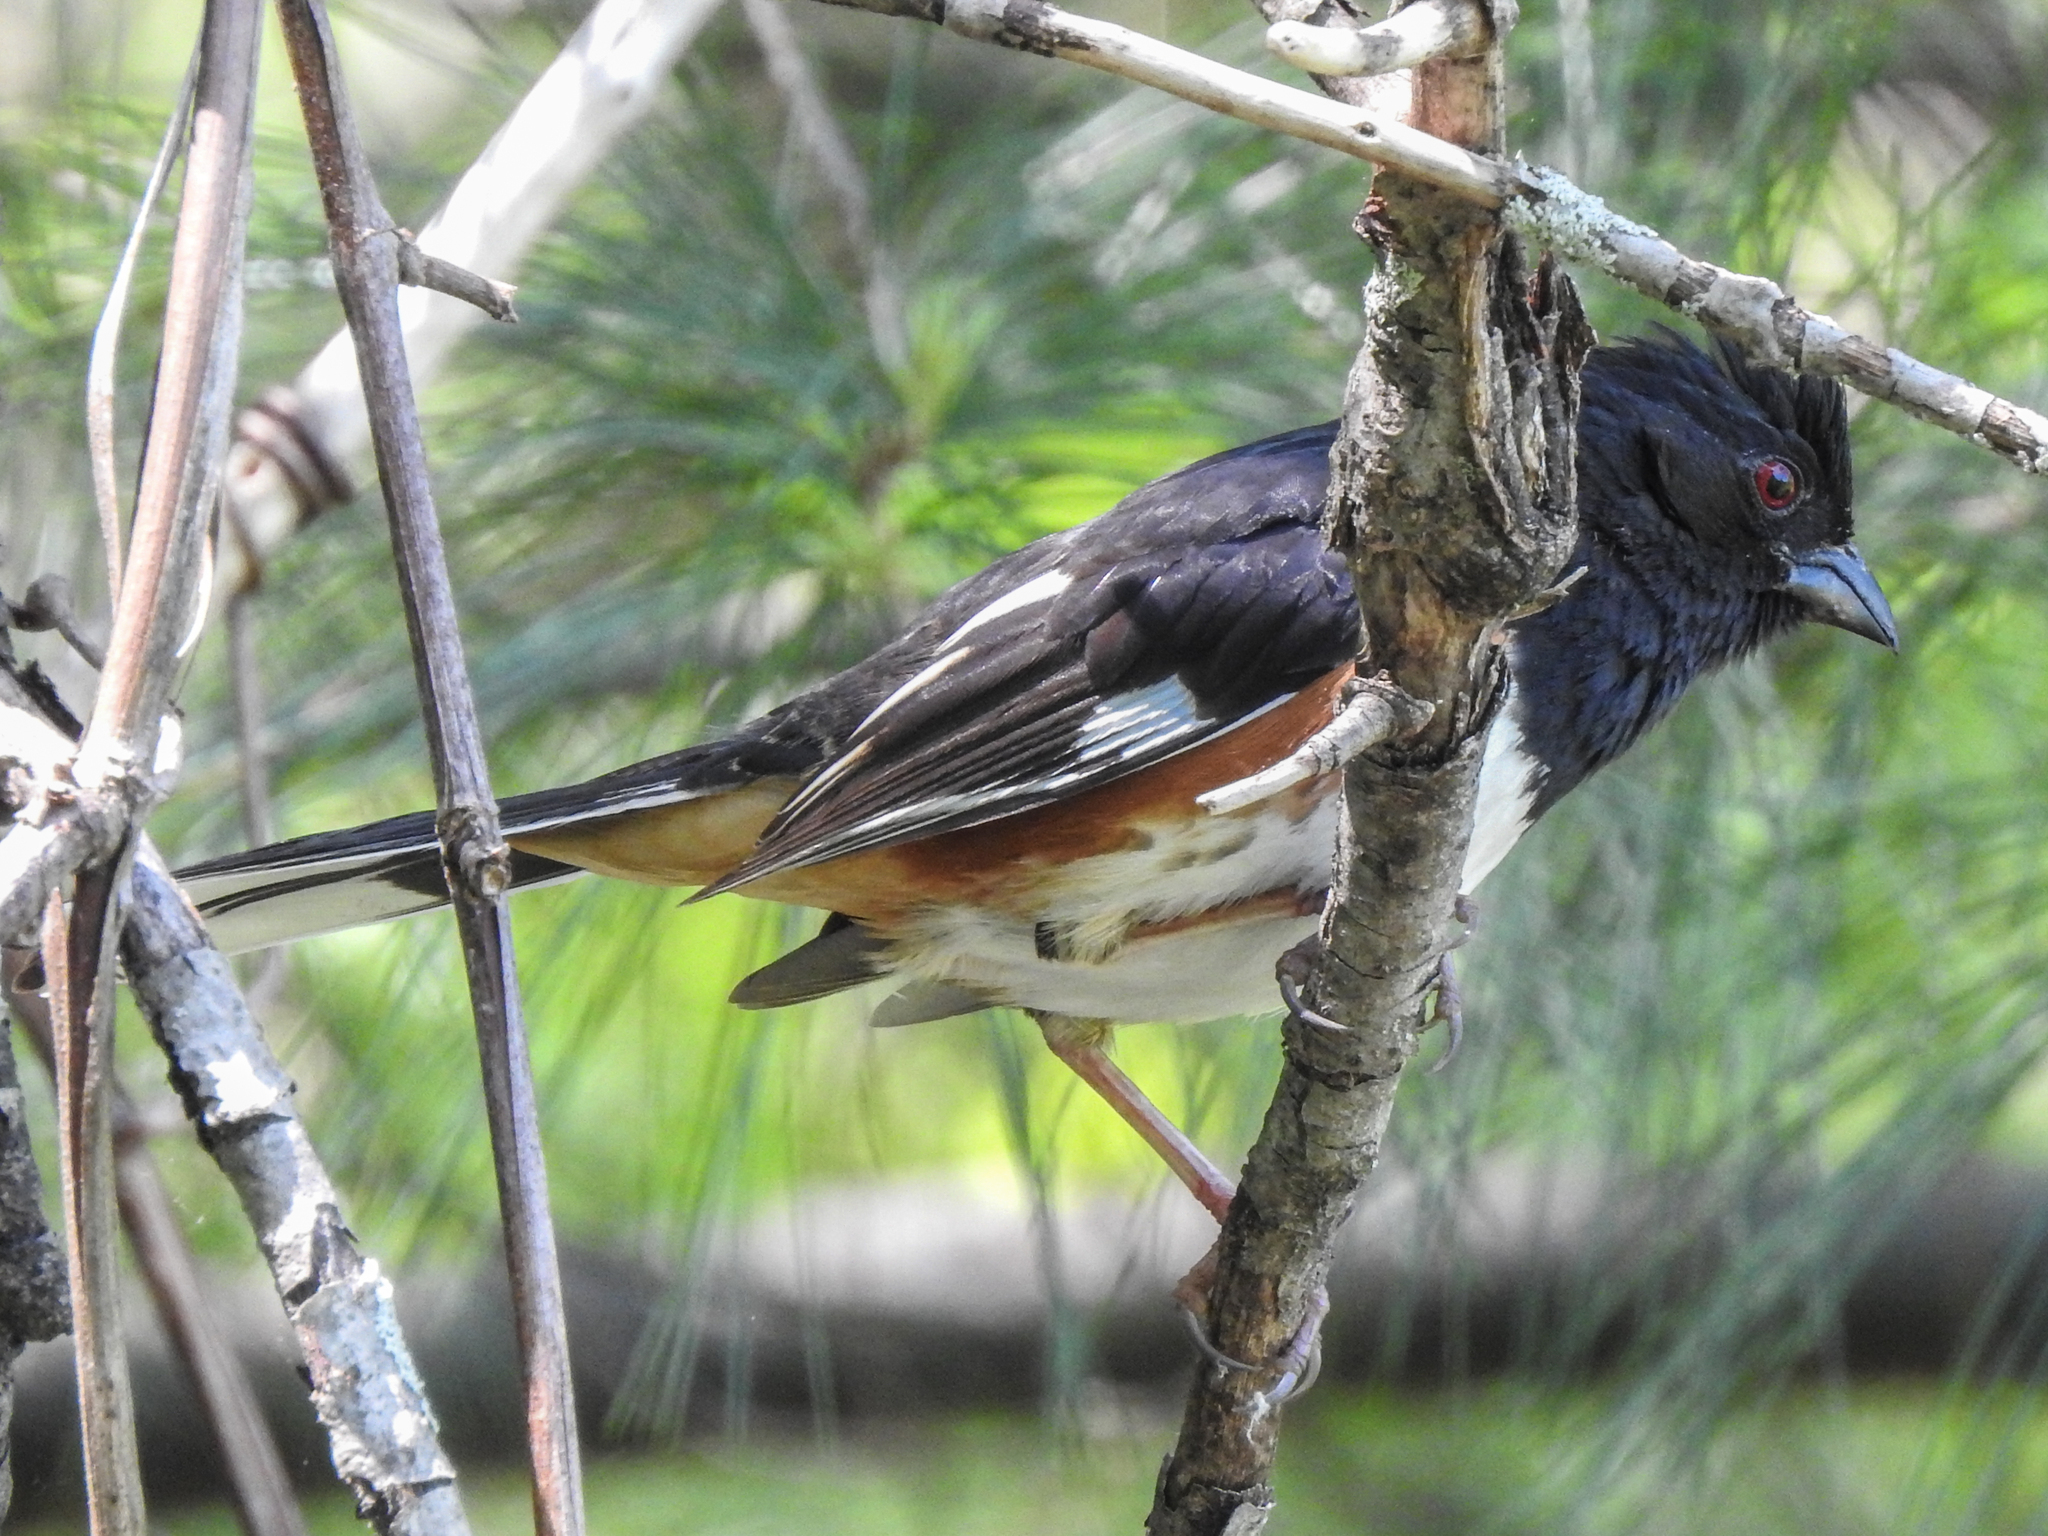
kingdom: Animalia
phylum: Chordata
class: Aves
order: Passeriformes
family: Passerellidae
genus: Pipilo
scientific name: Pipilo erythrophthalmus
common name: Eastern towhee
